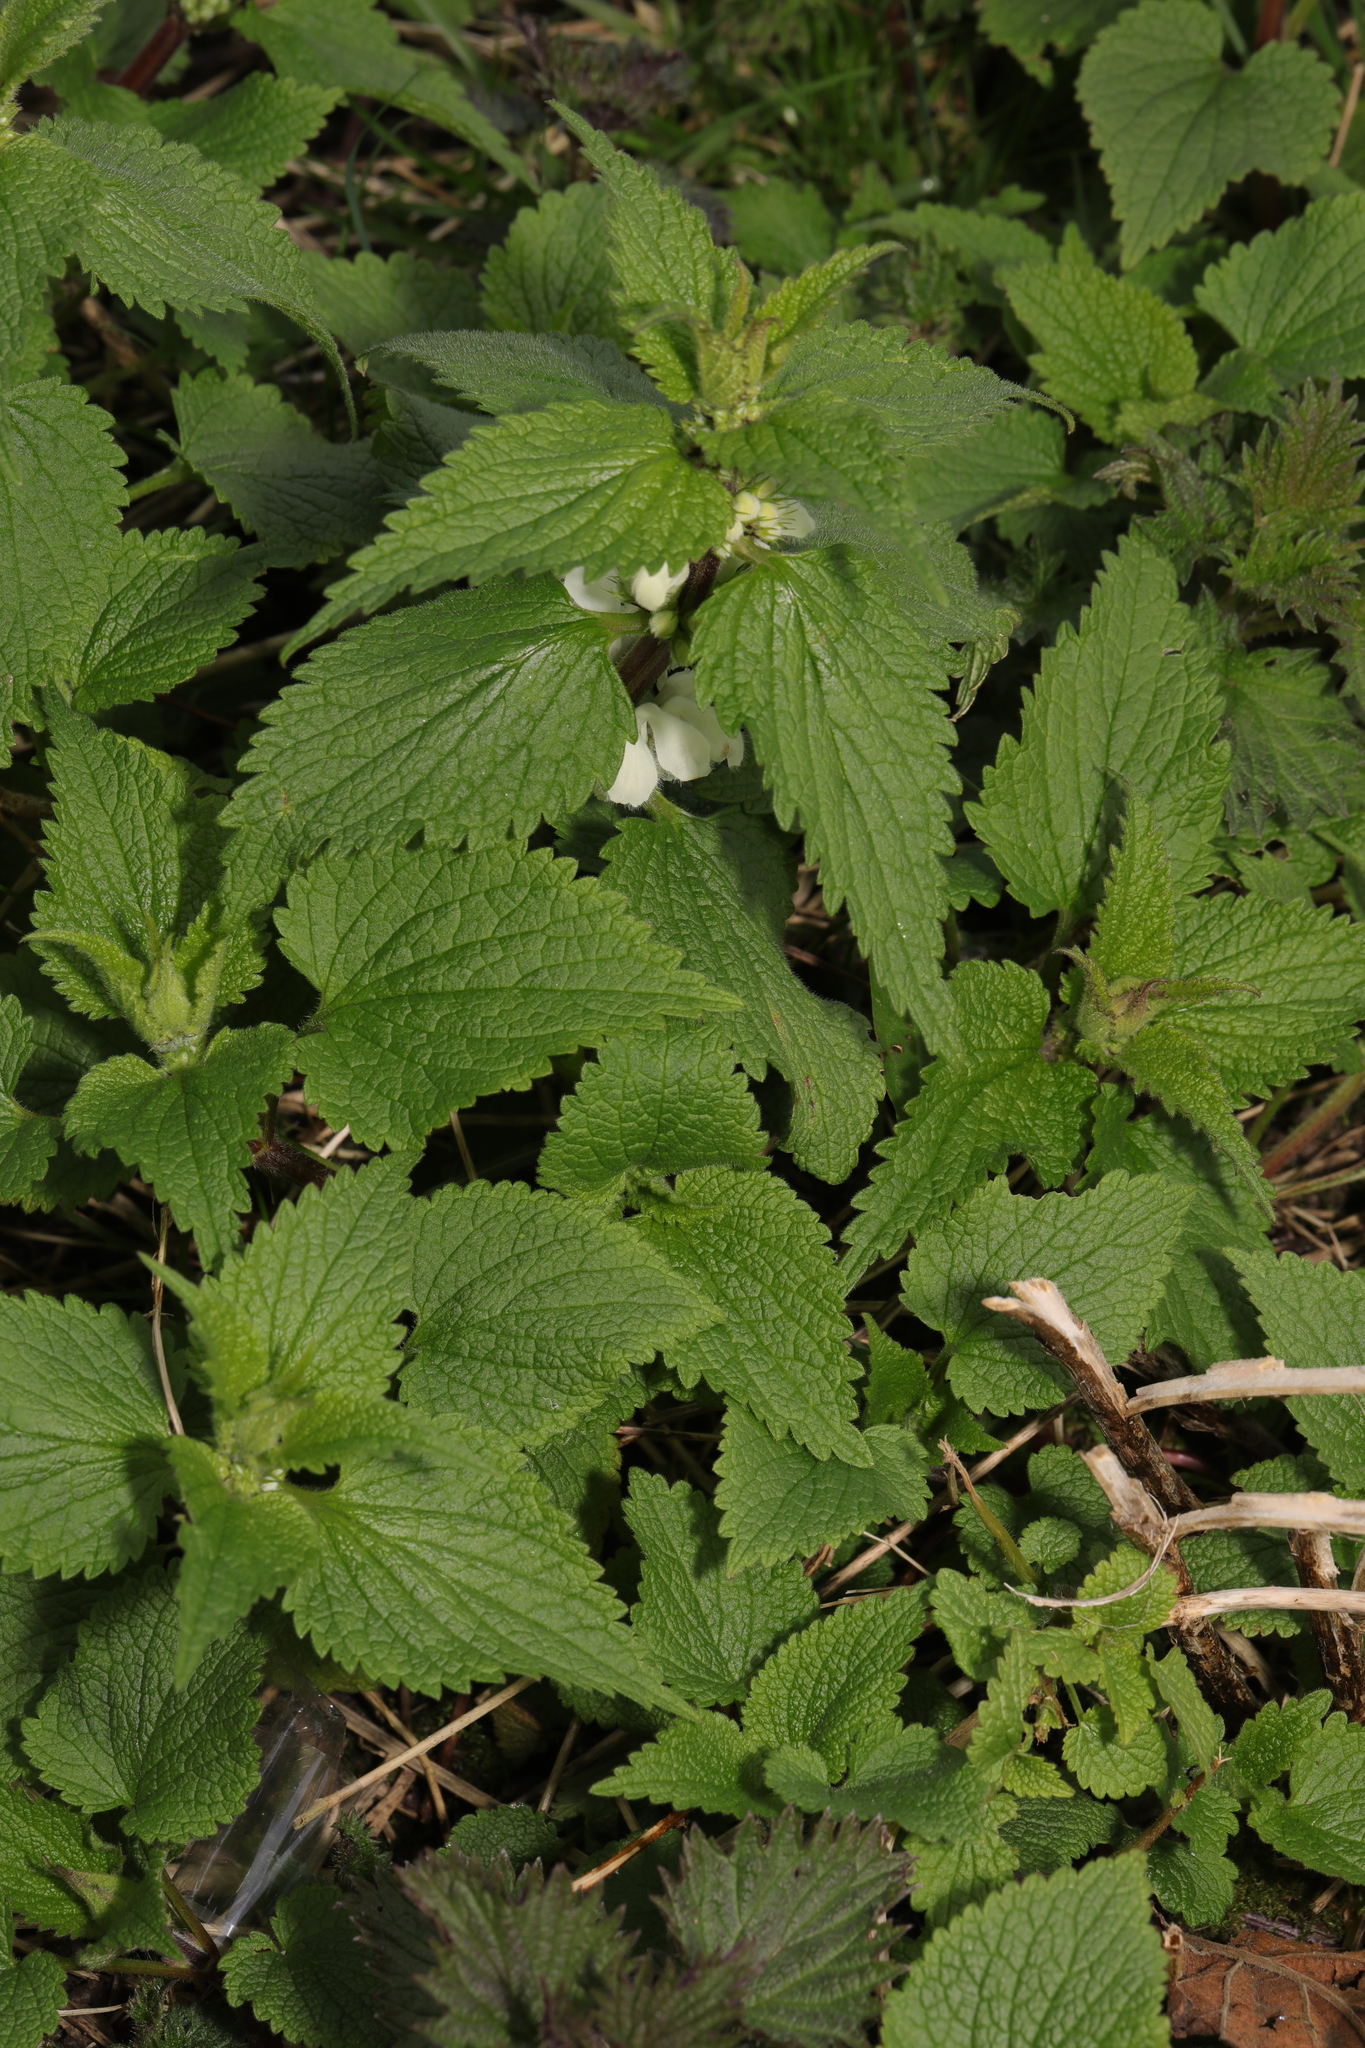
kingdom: Plantae
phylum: Tracheophyta
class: Magnoliopsida
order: Lamiales
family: Lamiaceae
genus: Lamium
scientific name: Lamium album
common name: White dead-nettle
